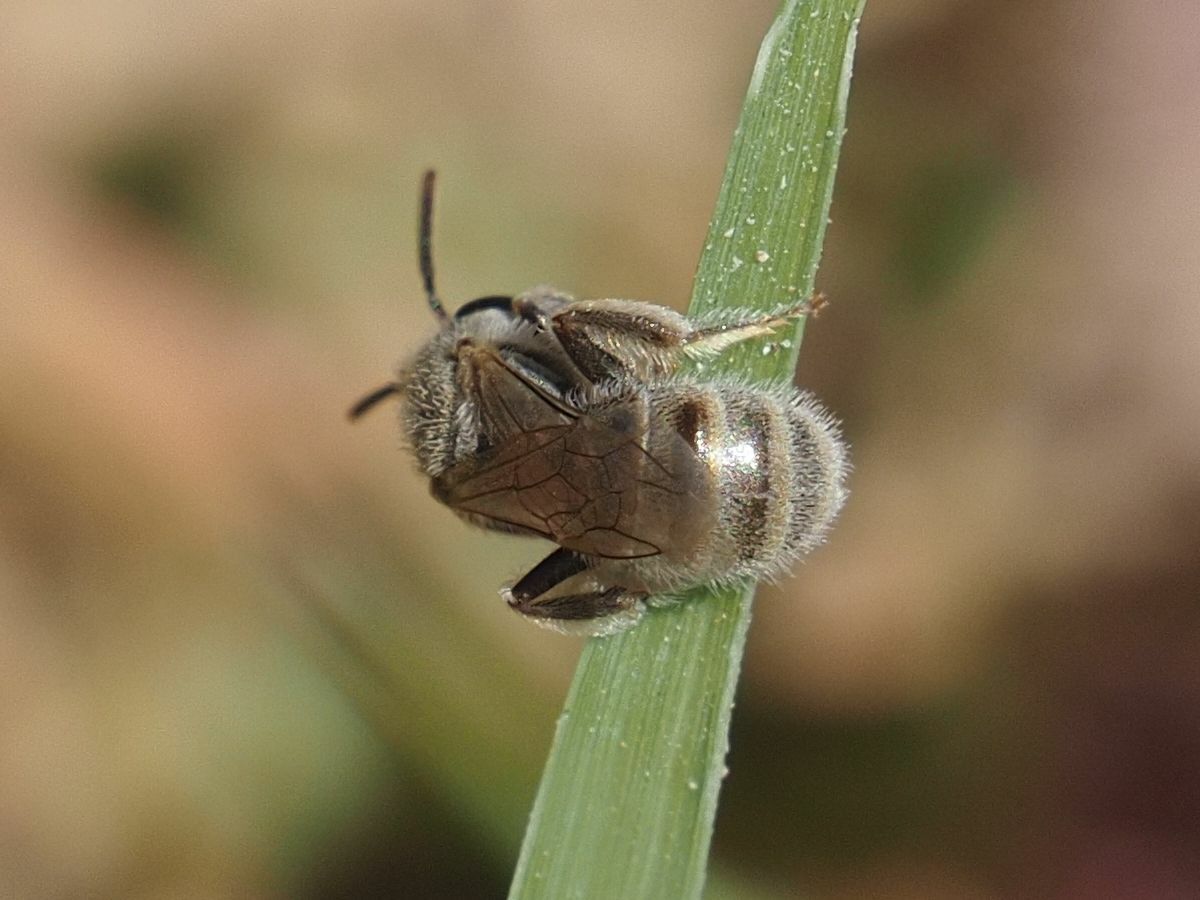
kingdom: Animalia
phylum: Arthropoda
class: Insecta
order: Hymenoptera
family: Halictidae
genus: Halictus
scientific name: Halictus concinnus
